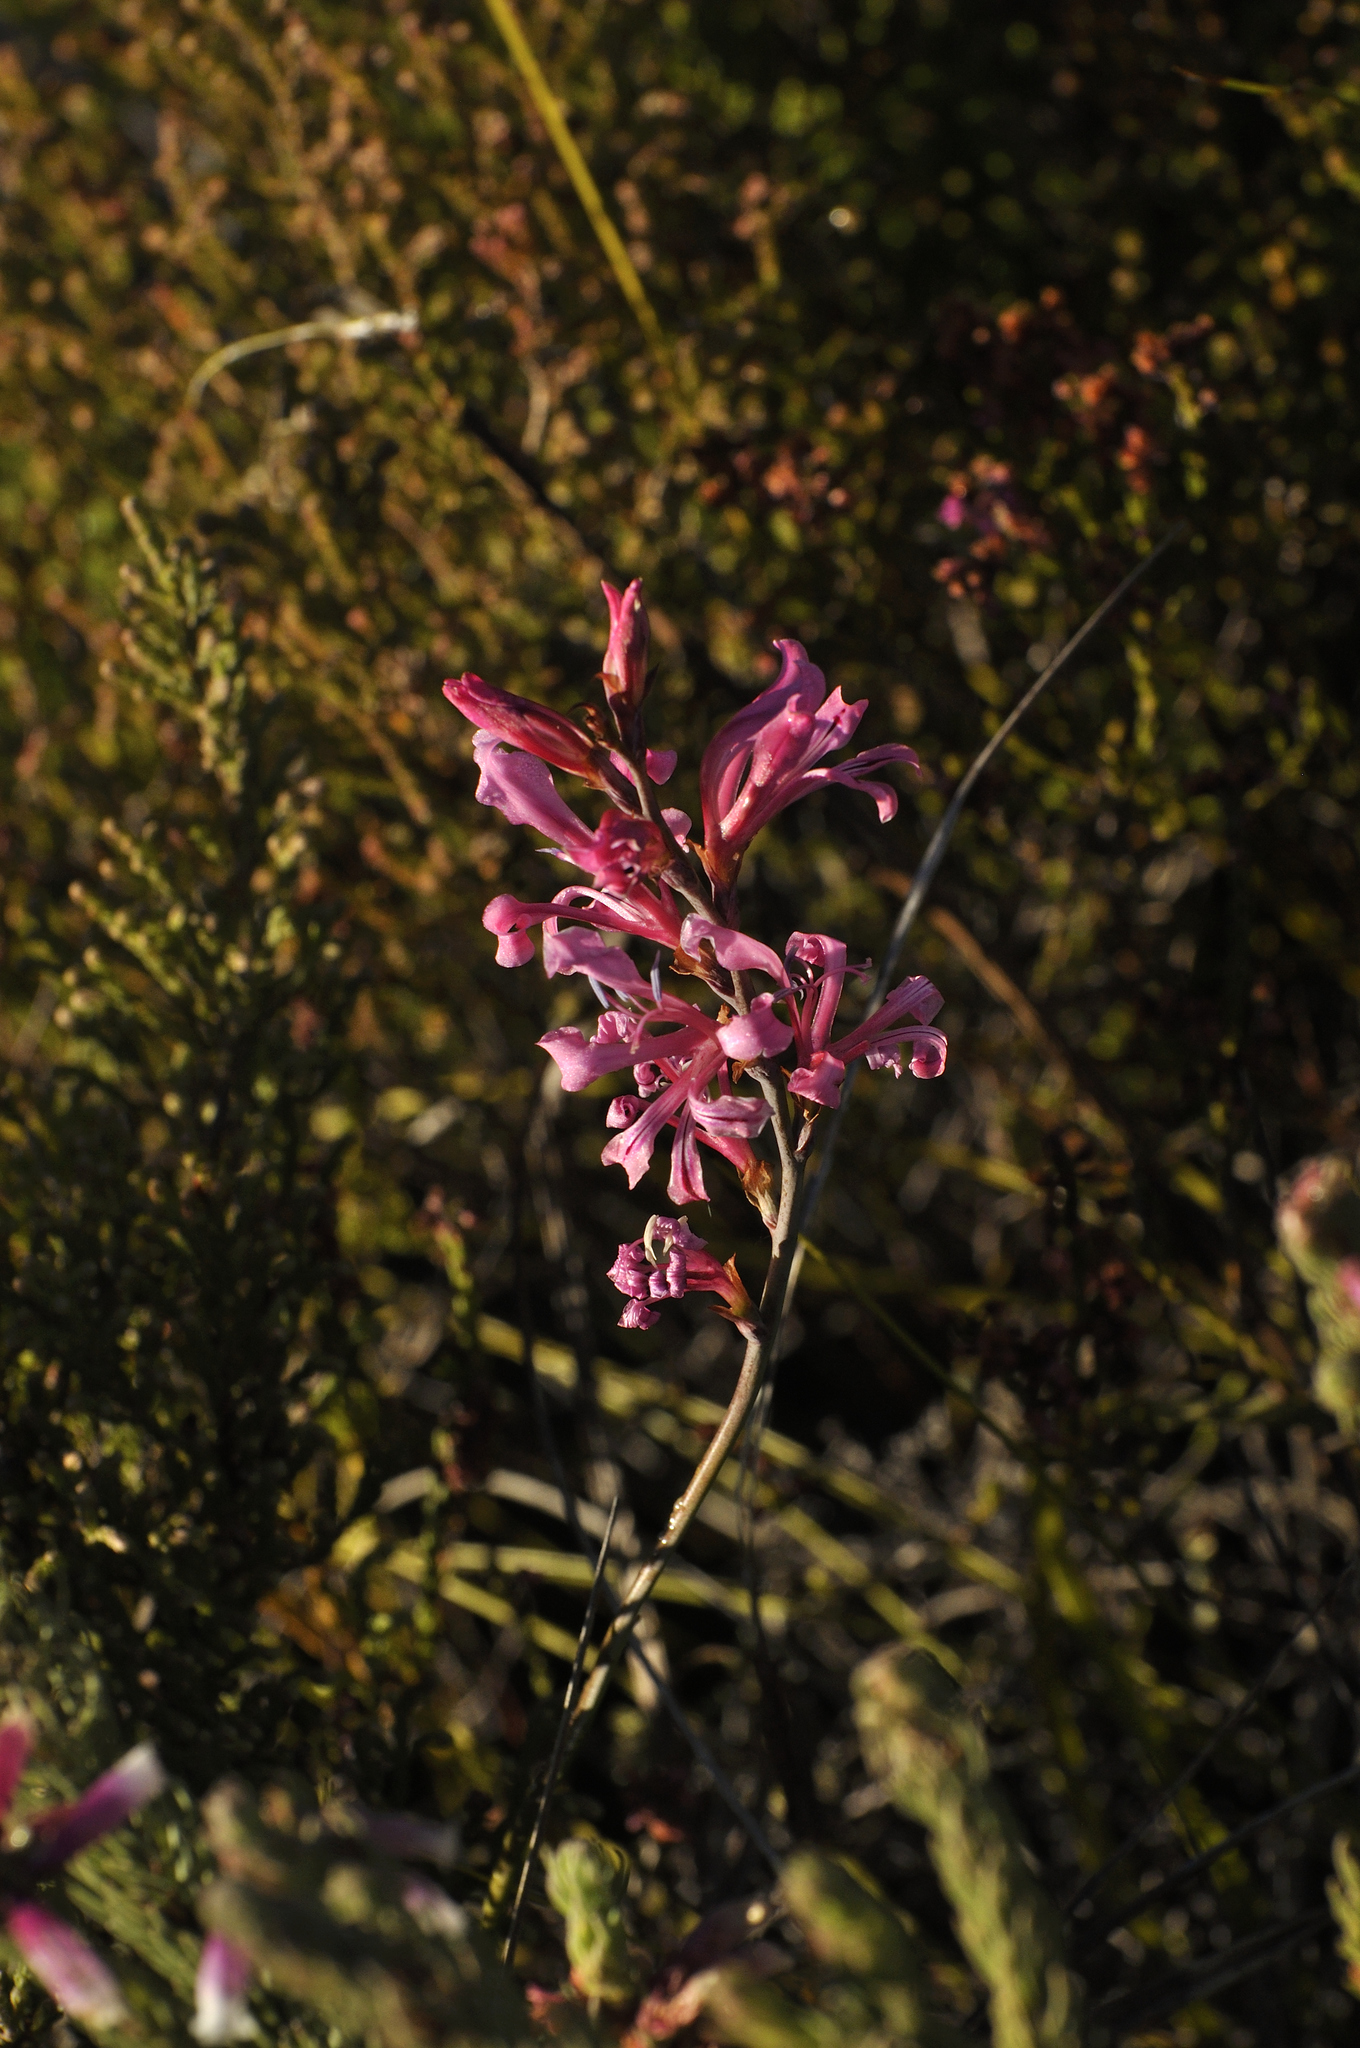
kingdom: Plantae
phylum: Tracheophyta
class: Liliopsida
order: Asparagales
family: Iridaceae
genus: Tritoniopsis
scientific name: Tritoniopsis dodii
